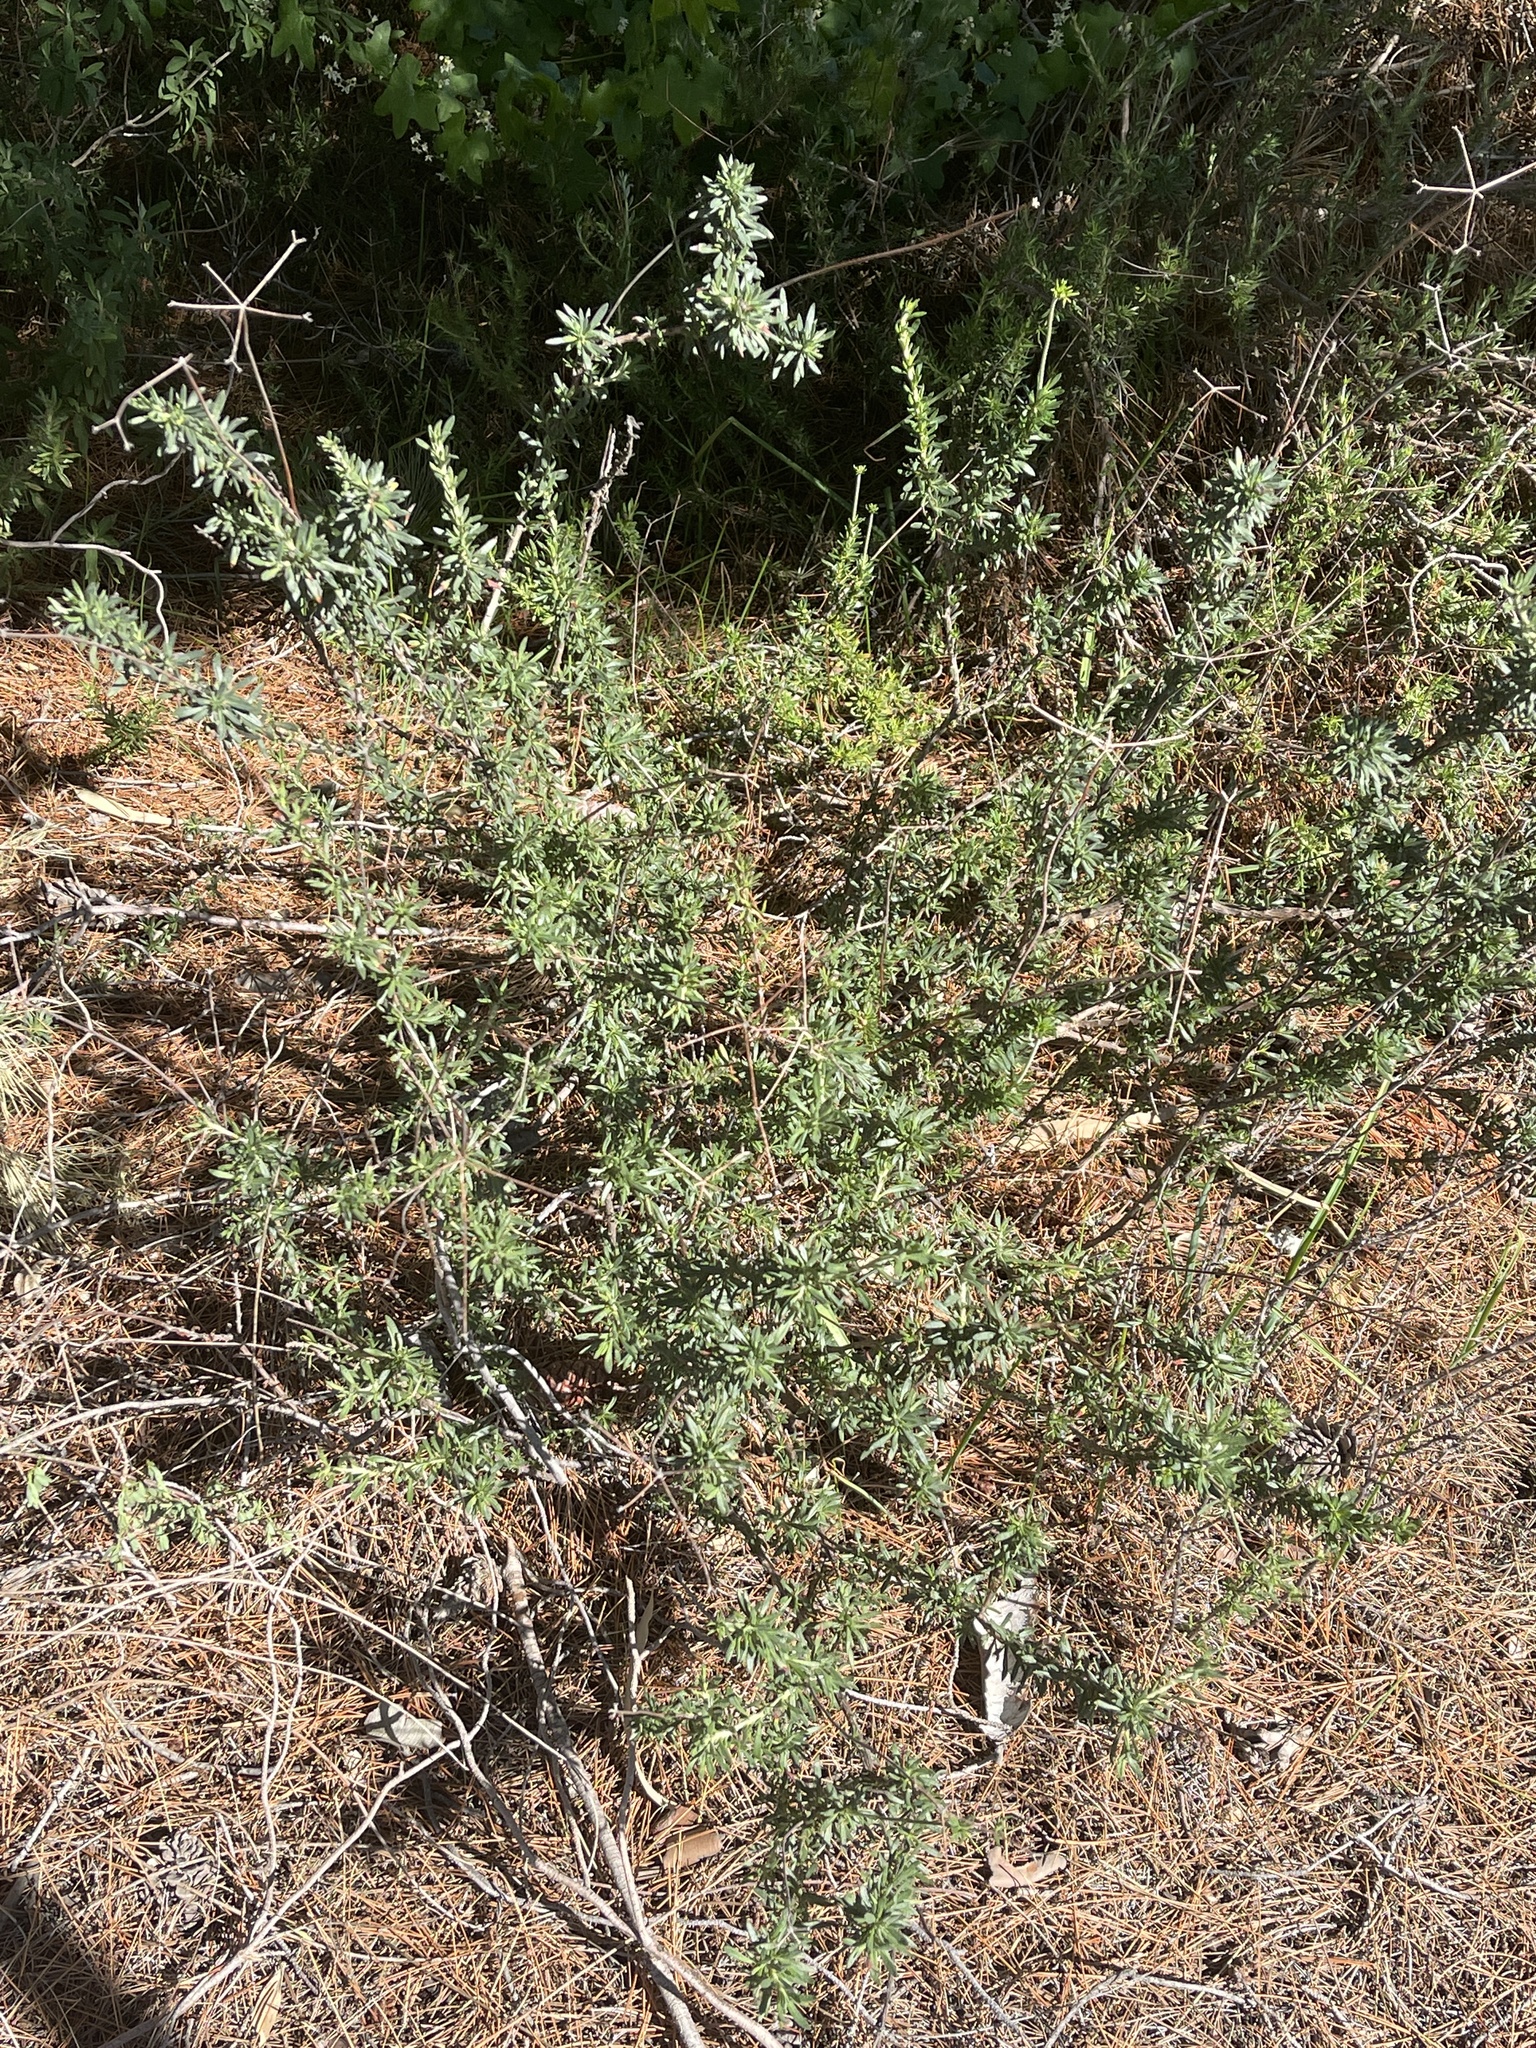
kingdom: Plantae
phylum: Tracheophyta
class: Magnoliopsida
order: Caryophyllales
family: Polygonaceae
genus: Eriogonum
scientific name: Eriogonum fasciculatum
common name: California wild buckwheat
